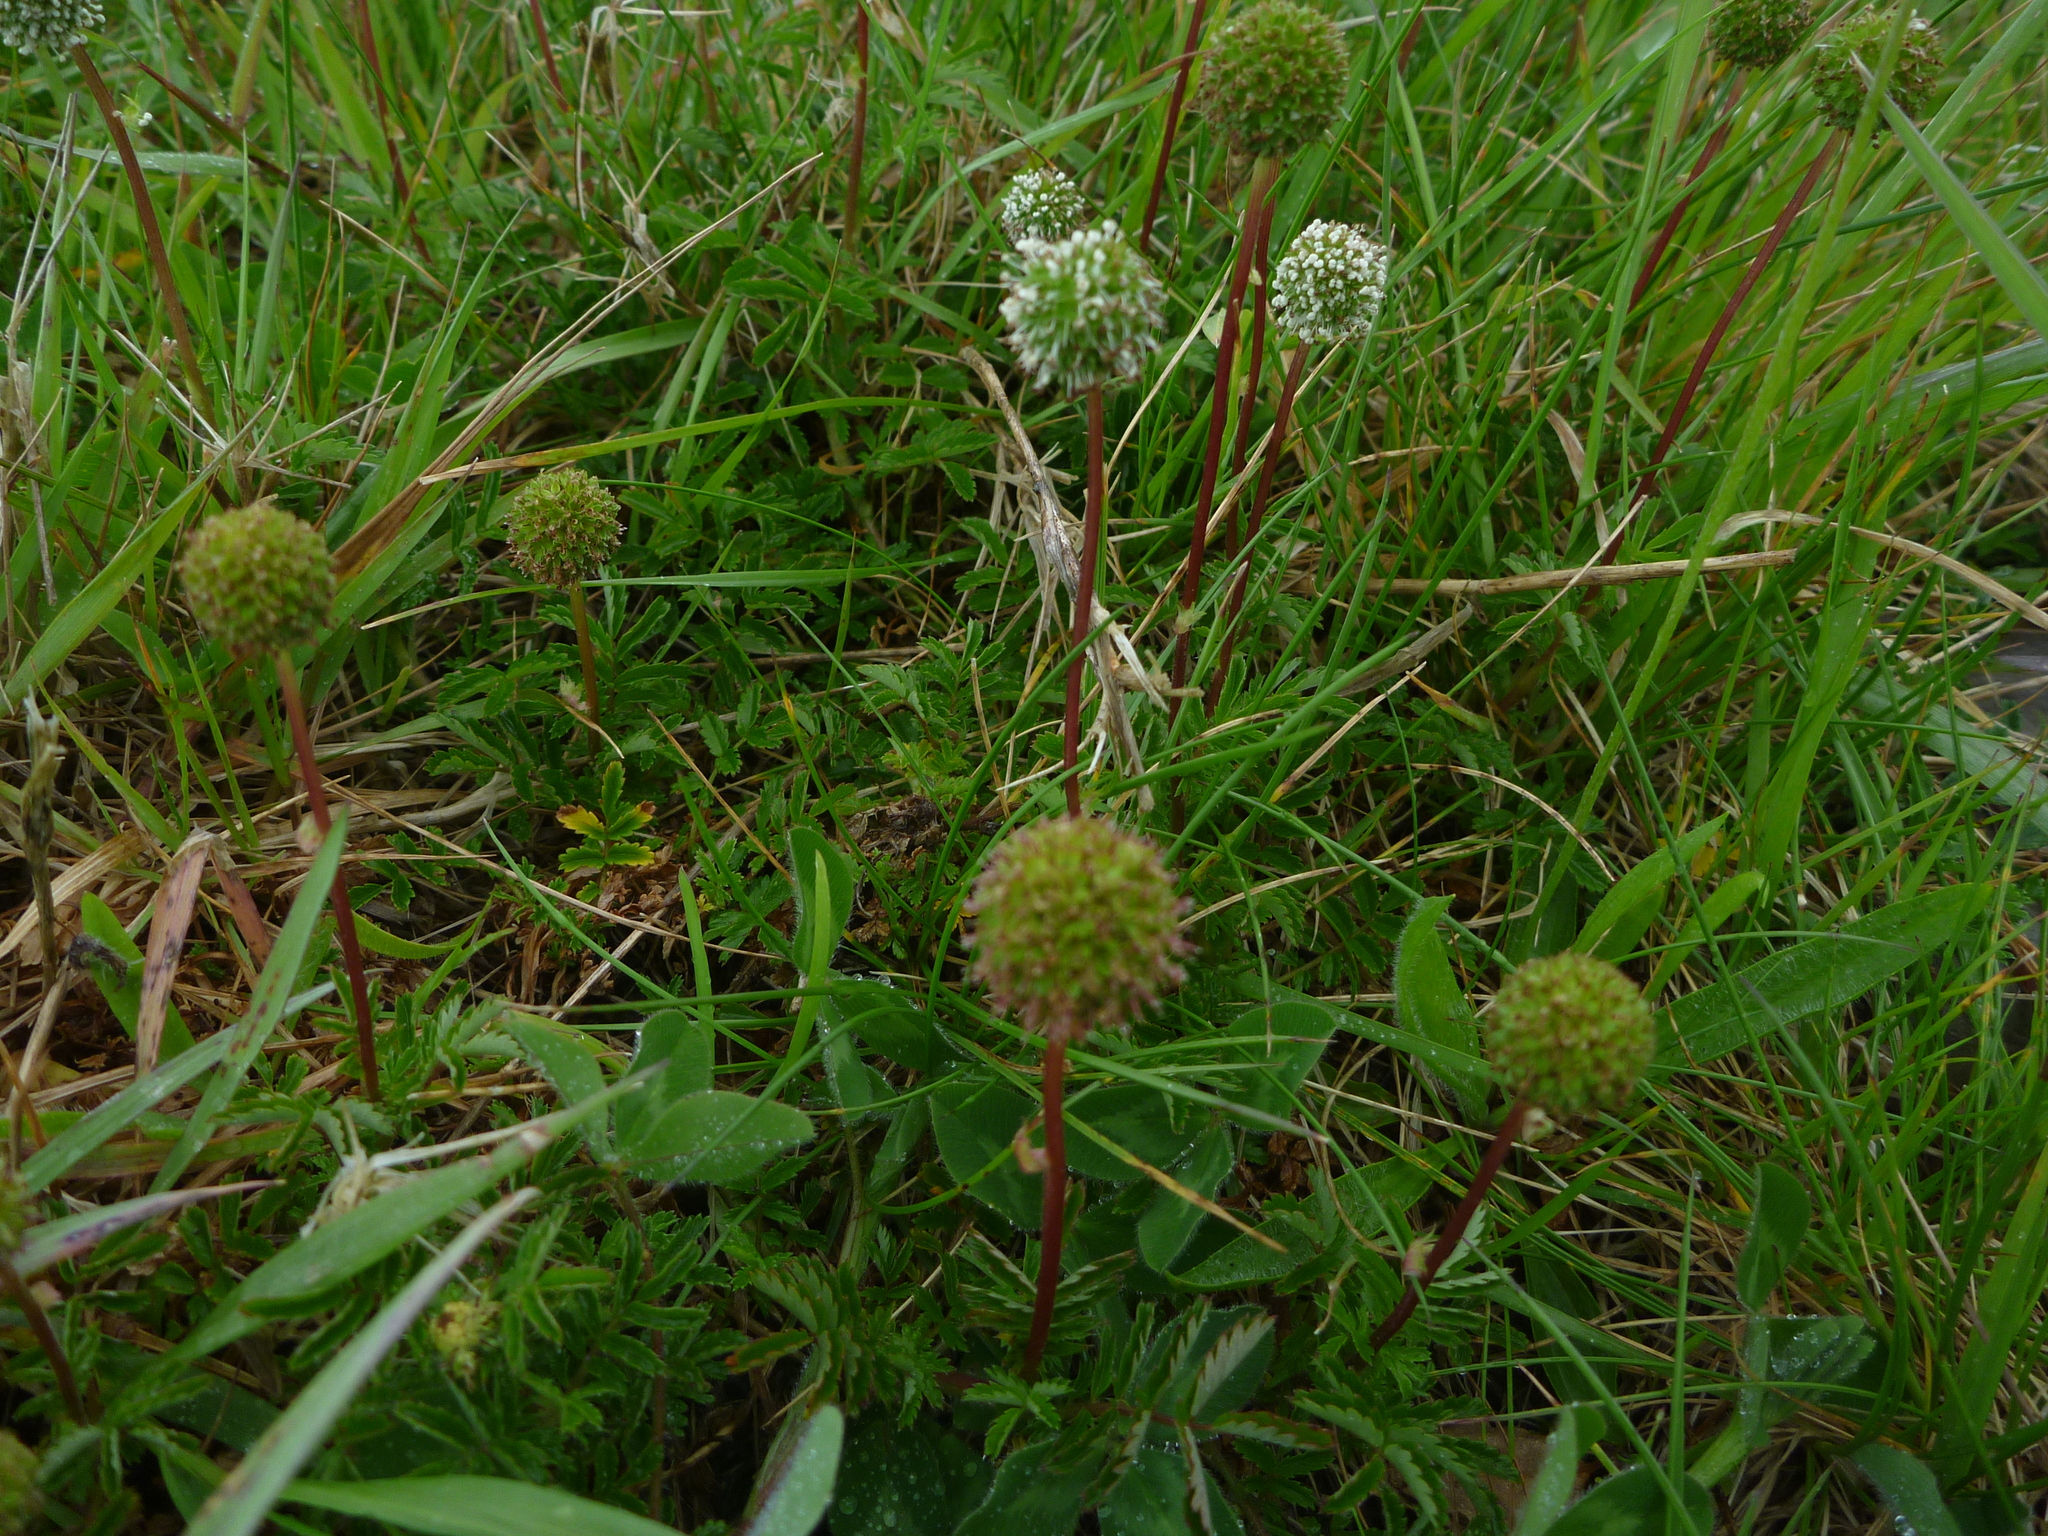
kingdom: Plantae
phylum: Tracheophyta
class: Magnoliopsida
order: Rosales
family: Rosaceae
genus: Acaena
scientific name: Acaena anserinifolia
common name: Bronze pirri-pirri-bur
